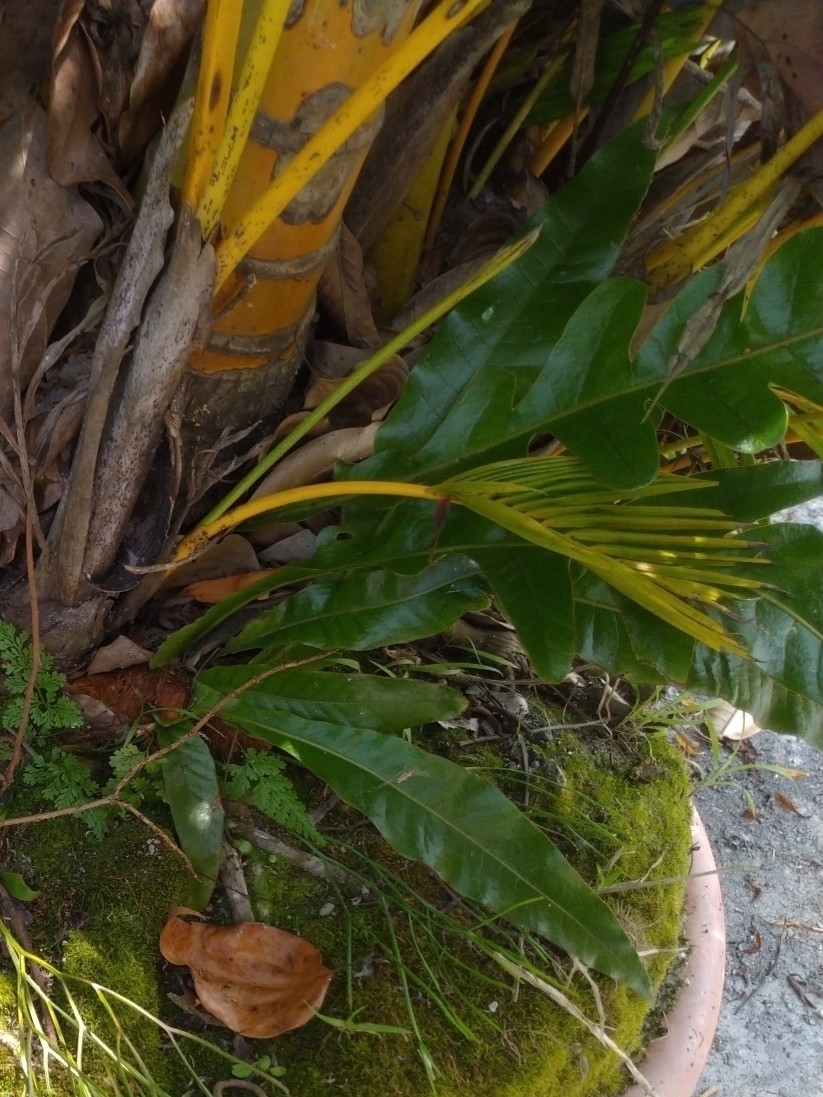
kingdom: Plantae
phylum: Tracheophyta
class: Polypodiopsida
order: Polypodiales
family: Polypodiaceae
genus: Drynaria
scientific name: Drynaria coronans
